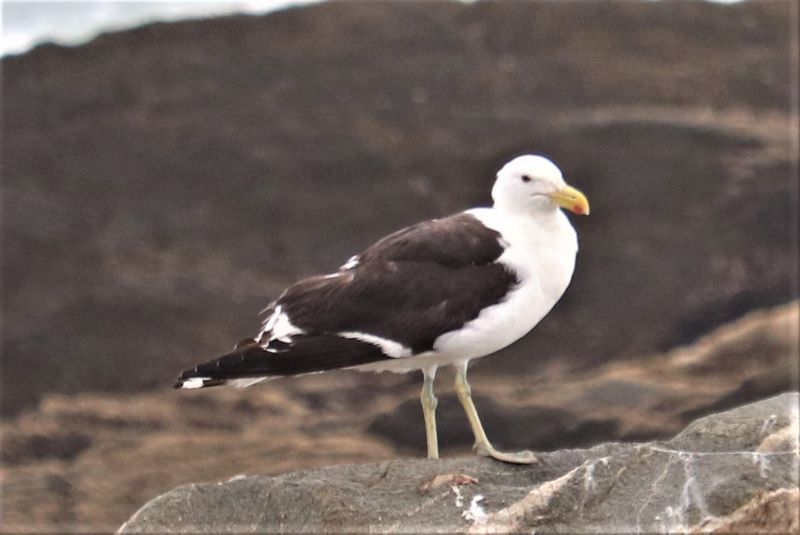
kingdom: Animalia
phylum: Chordata
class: Aves
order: Charadriiformes
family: Laridae
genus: Larus
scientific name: Larus dominicanus
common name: Kelp gull
